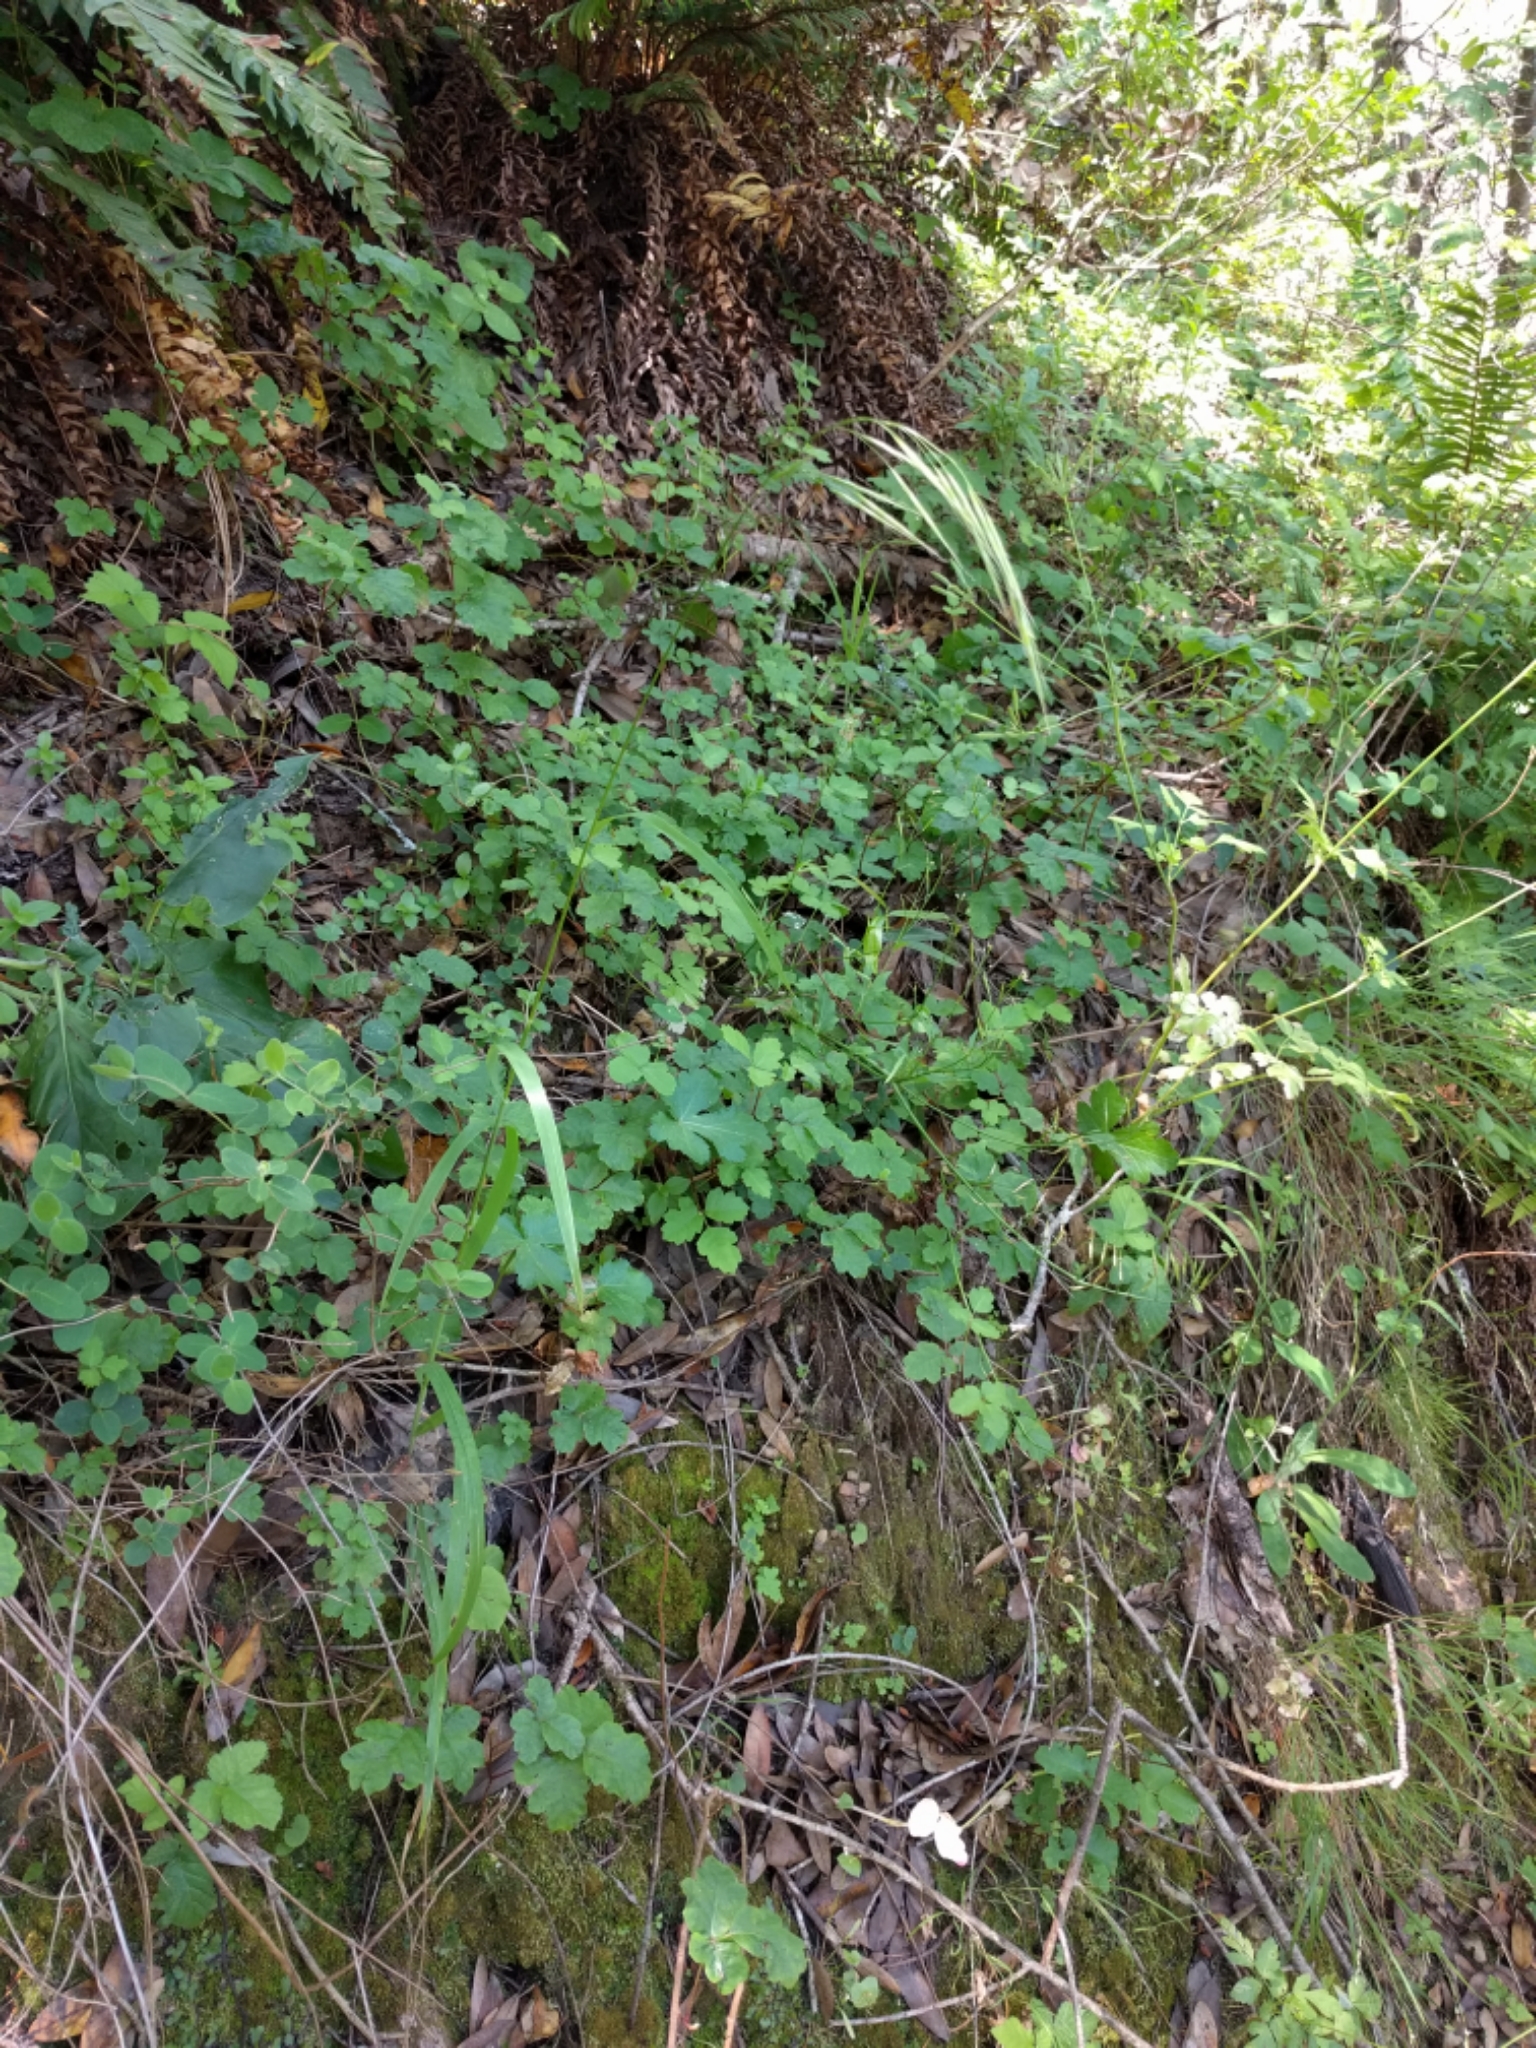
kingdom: Plantae
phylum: Tracheophyta
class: Liliopsida
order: Poales
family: Poaceae
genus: Bromus
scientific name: Bromus laevipes
